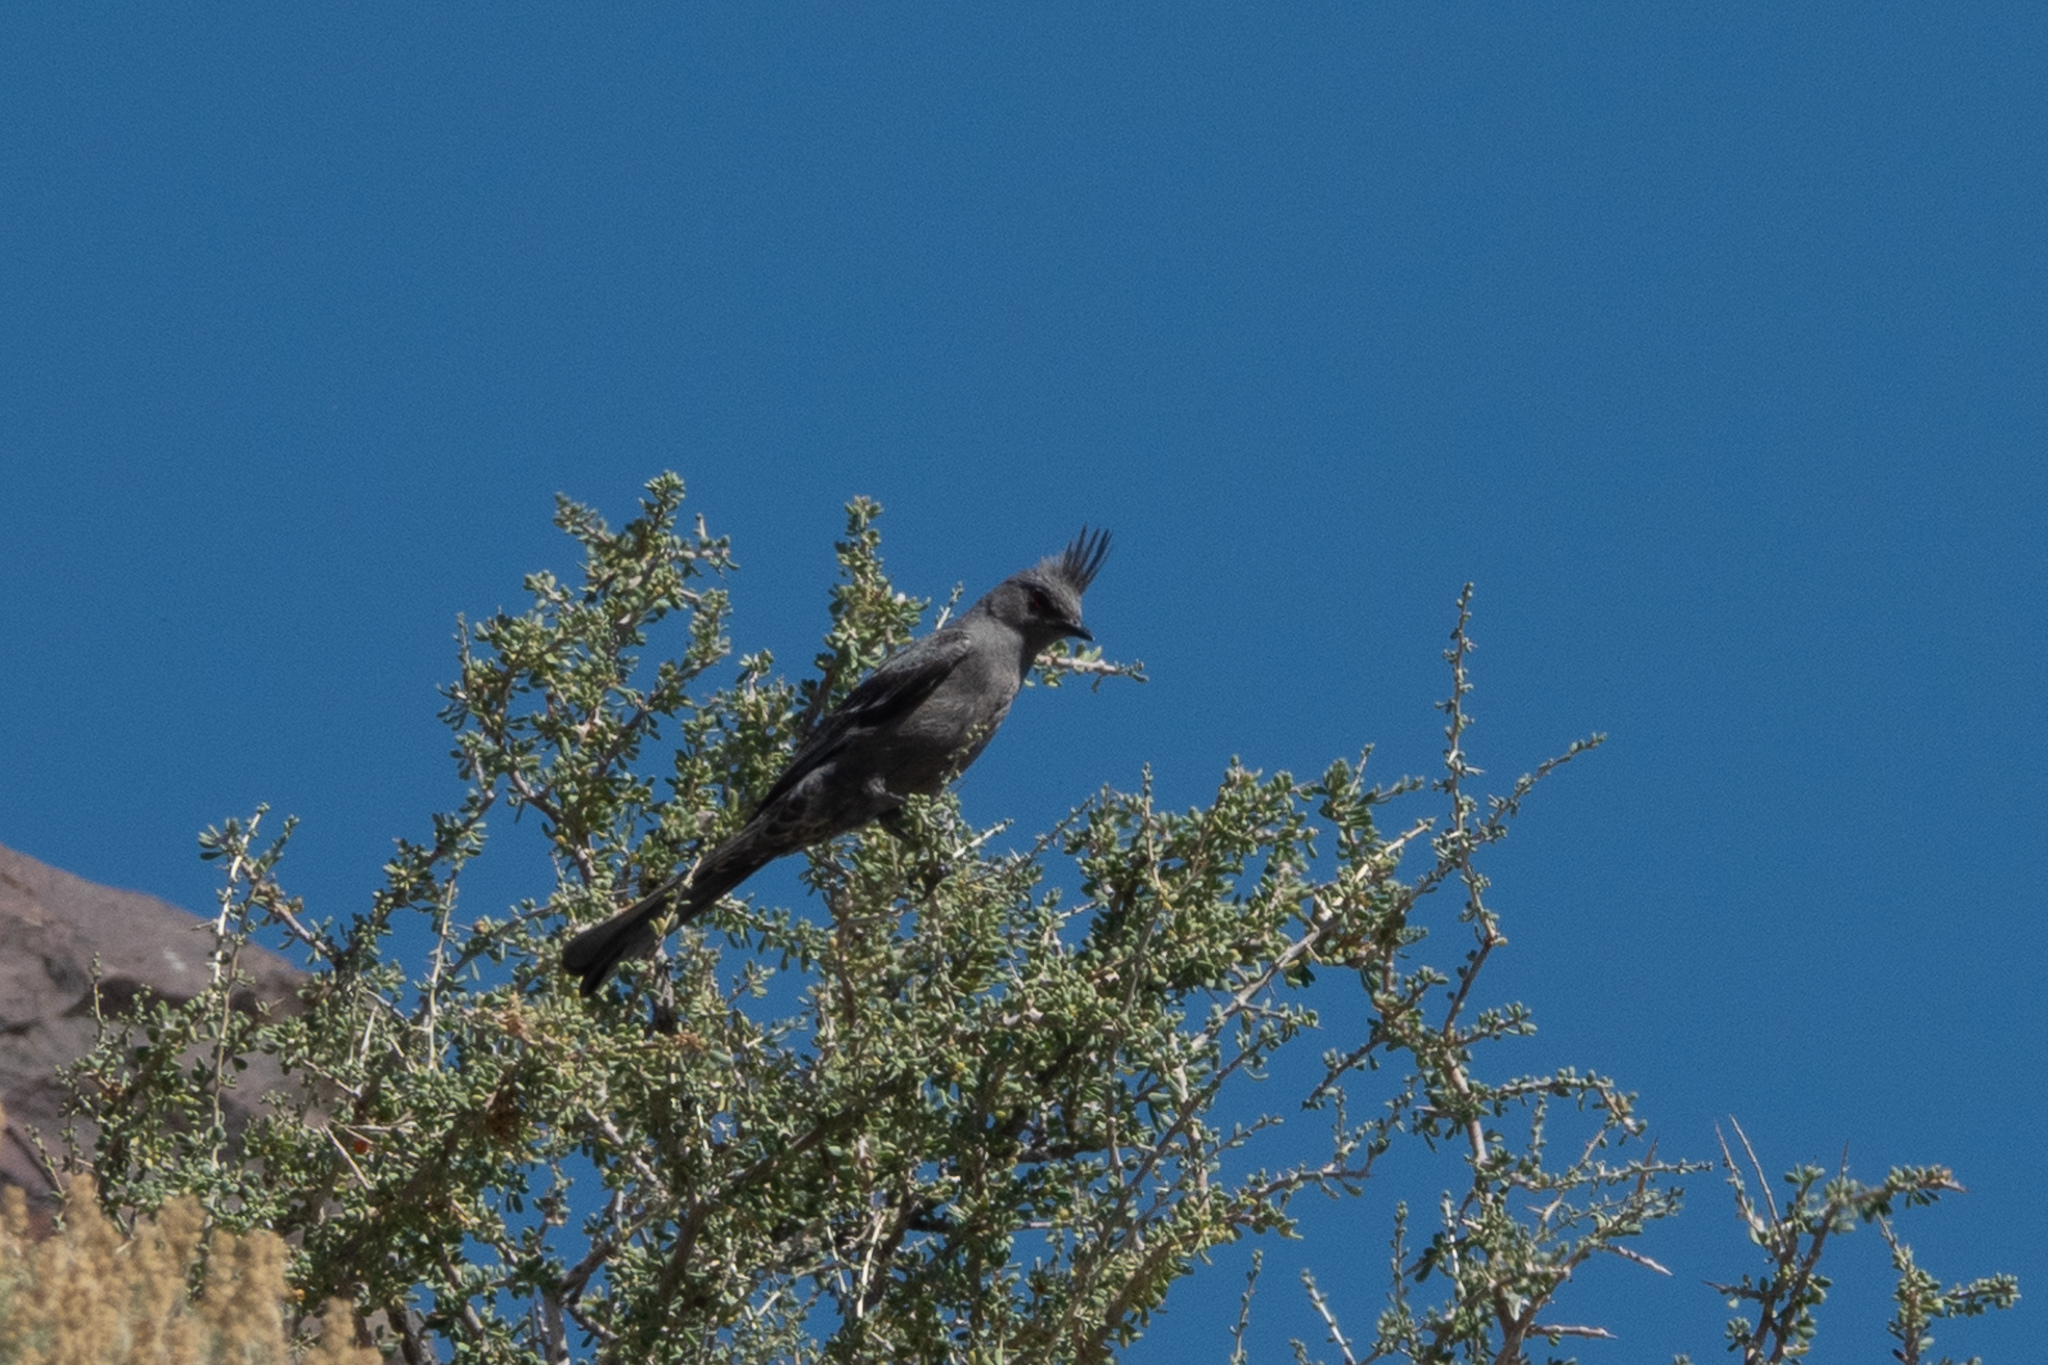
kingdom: Animalia
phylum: Chordata
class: Aves
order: Passeriformes
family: Ptilogonatidae
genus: Phainopepla
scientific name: Phainopepla nitens
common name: Phainopepla
